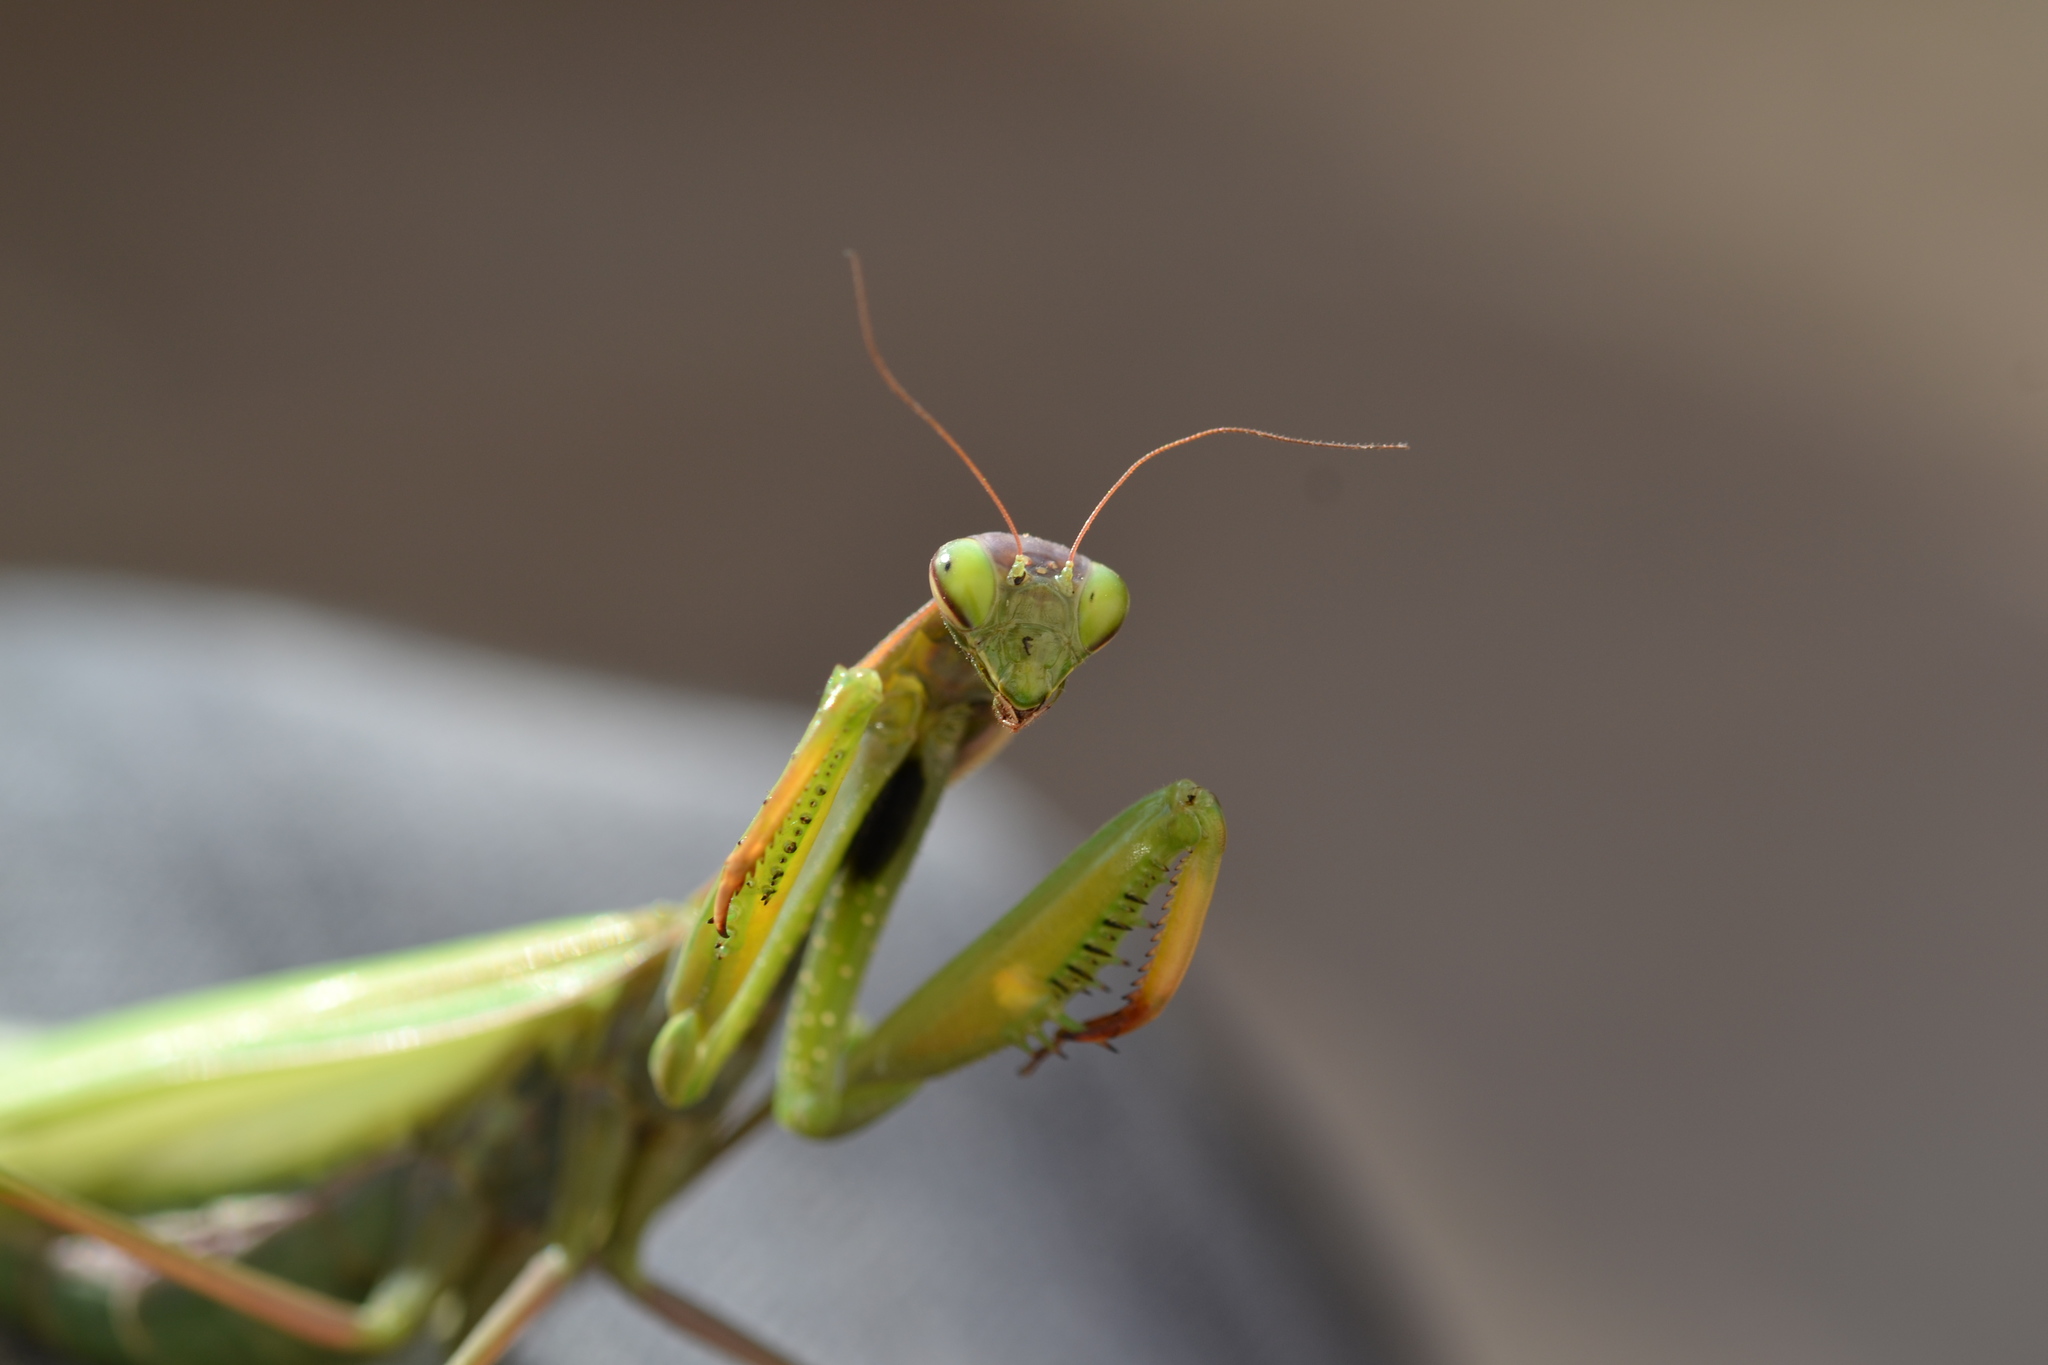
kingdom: Animalia
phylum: Arthropoda
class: Insecta
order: Mantodea
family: Mantidae
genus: Mantis
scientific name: Mantis religiosa
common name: Praying mantis
